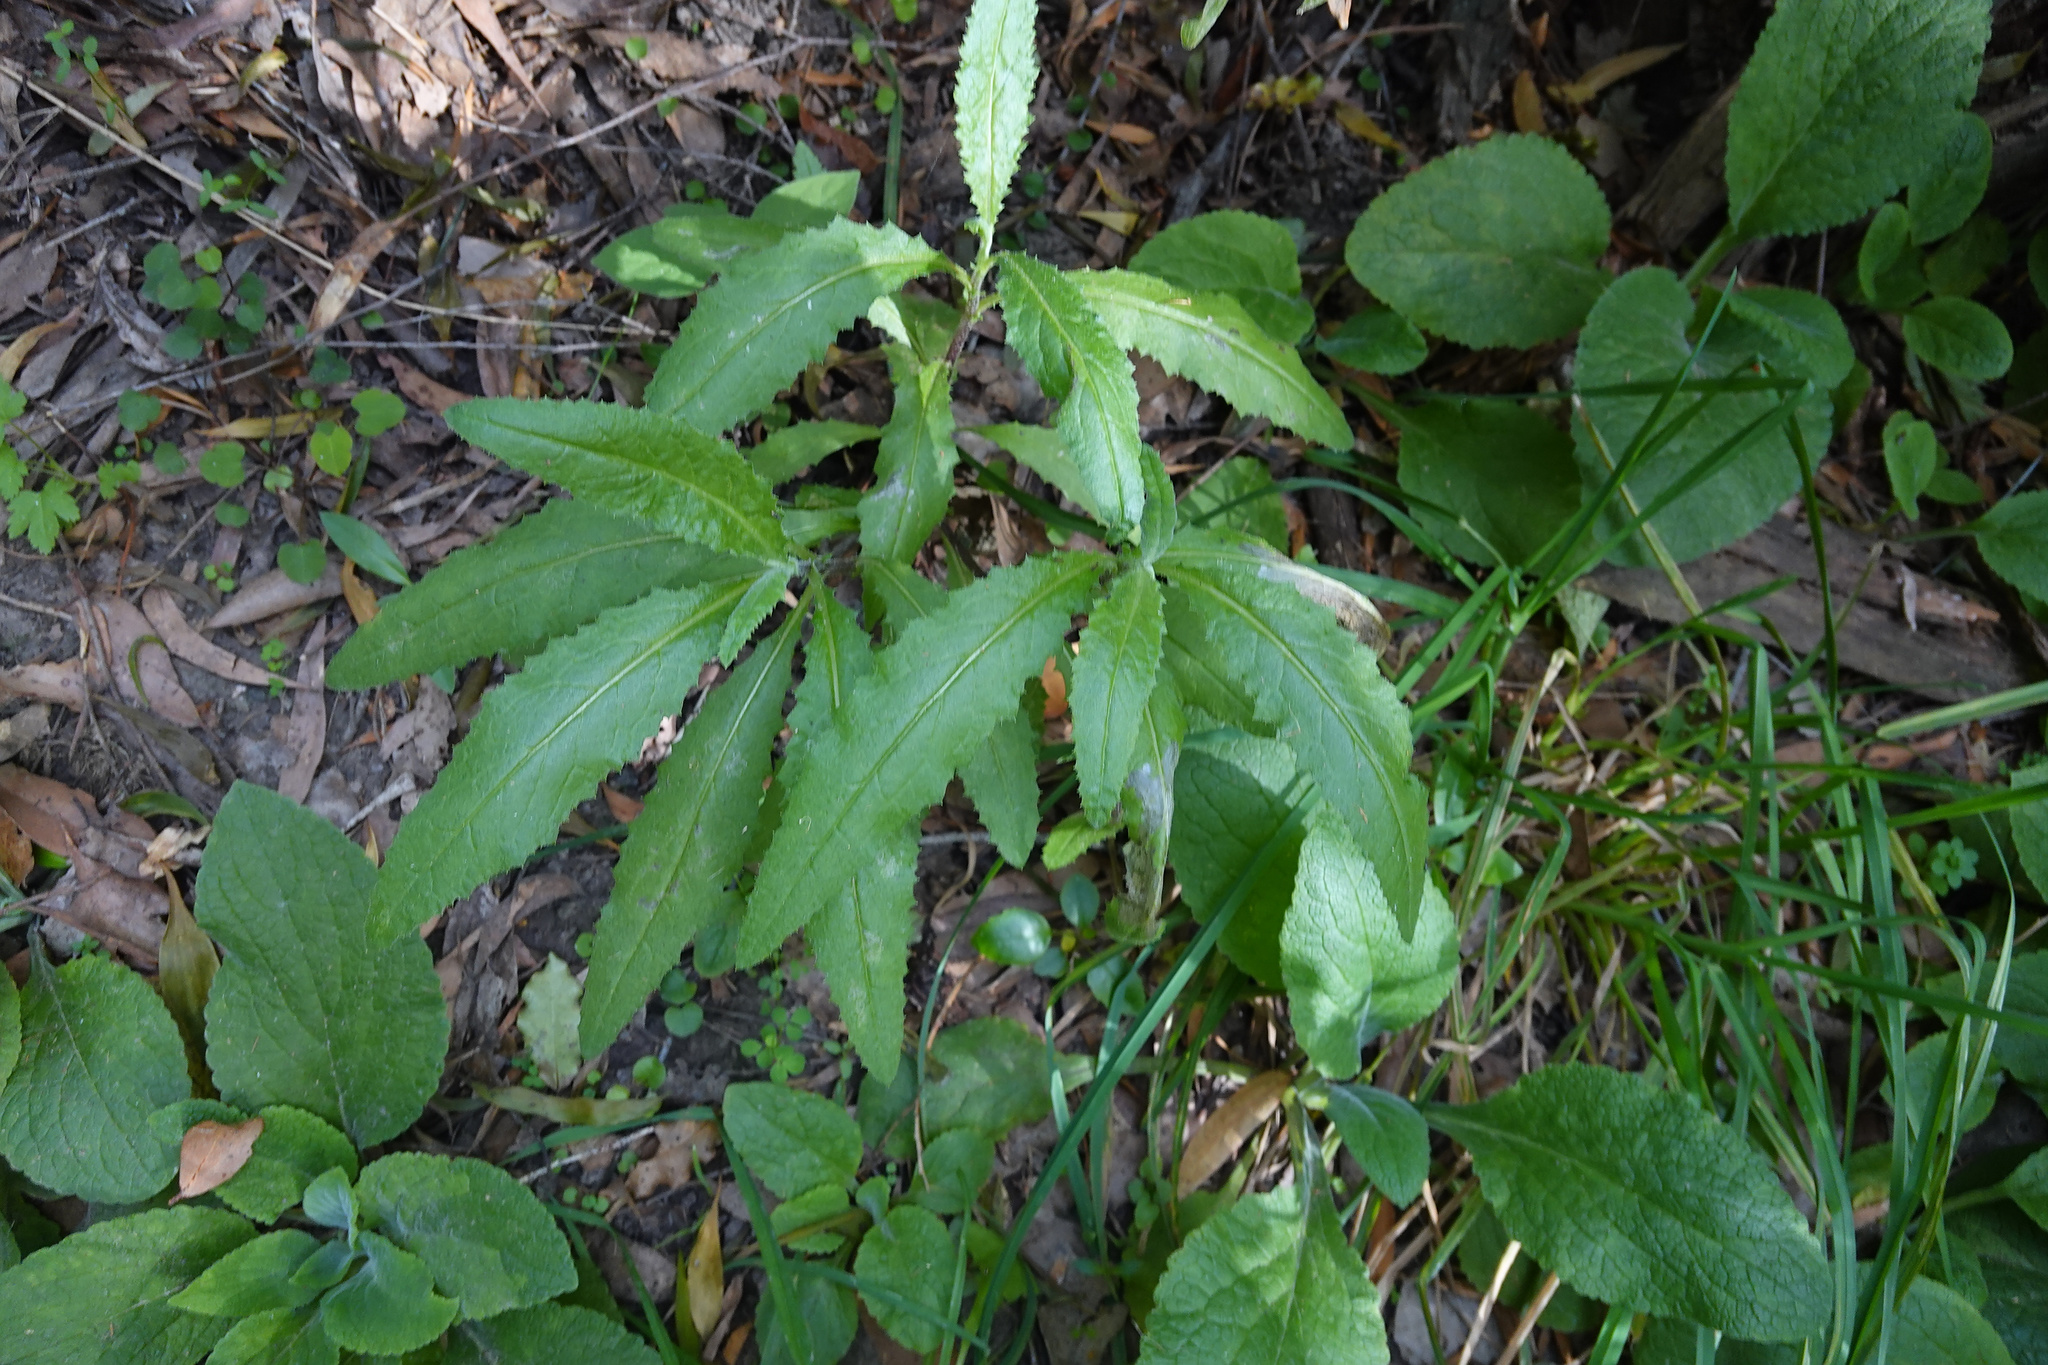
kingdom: Plantae
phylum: Tracheophyta
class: Magnoliopsida
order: Asterales
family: Asteraceae
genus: Senecio
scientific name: Senecio minimus
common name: Toothed fireweed
